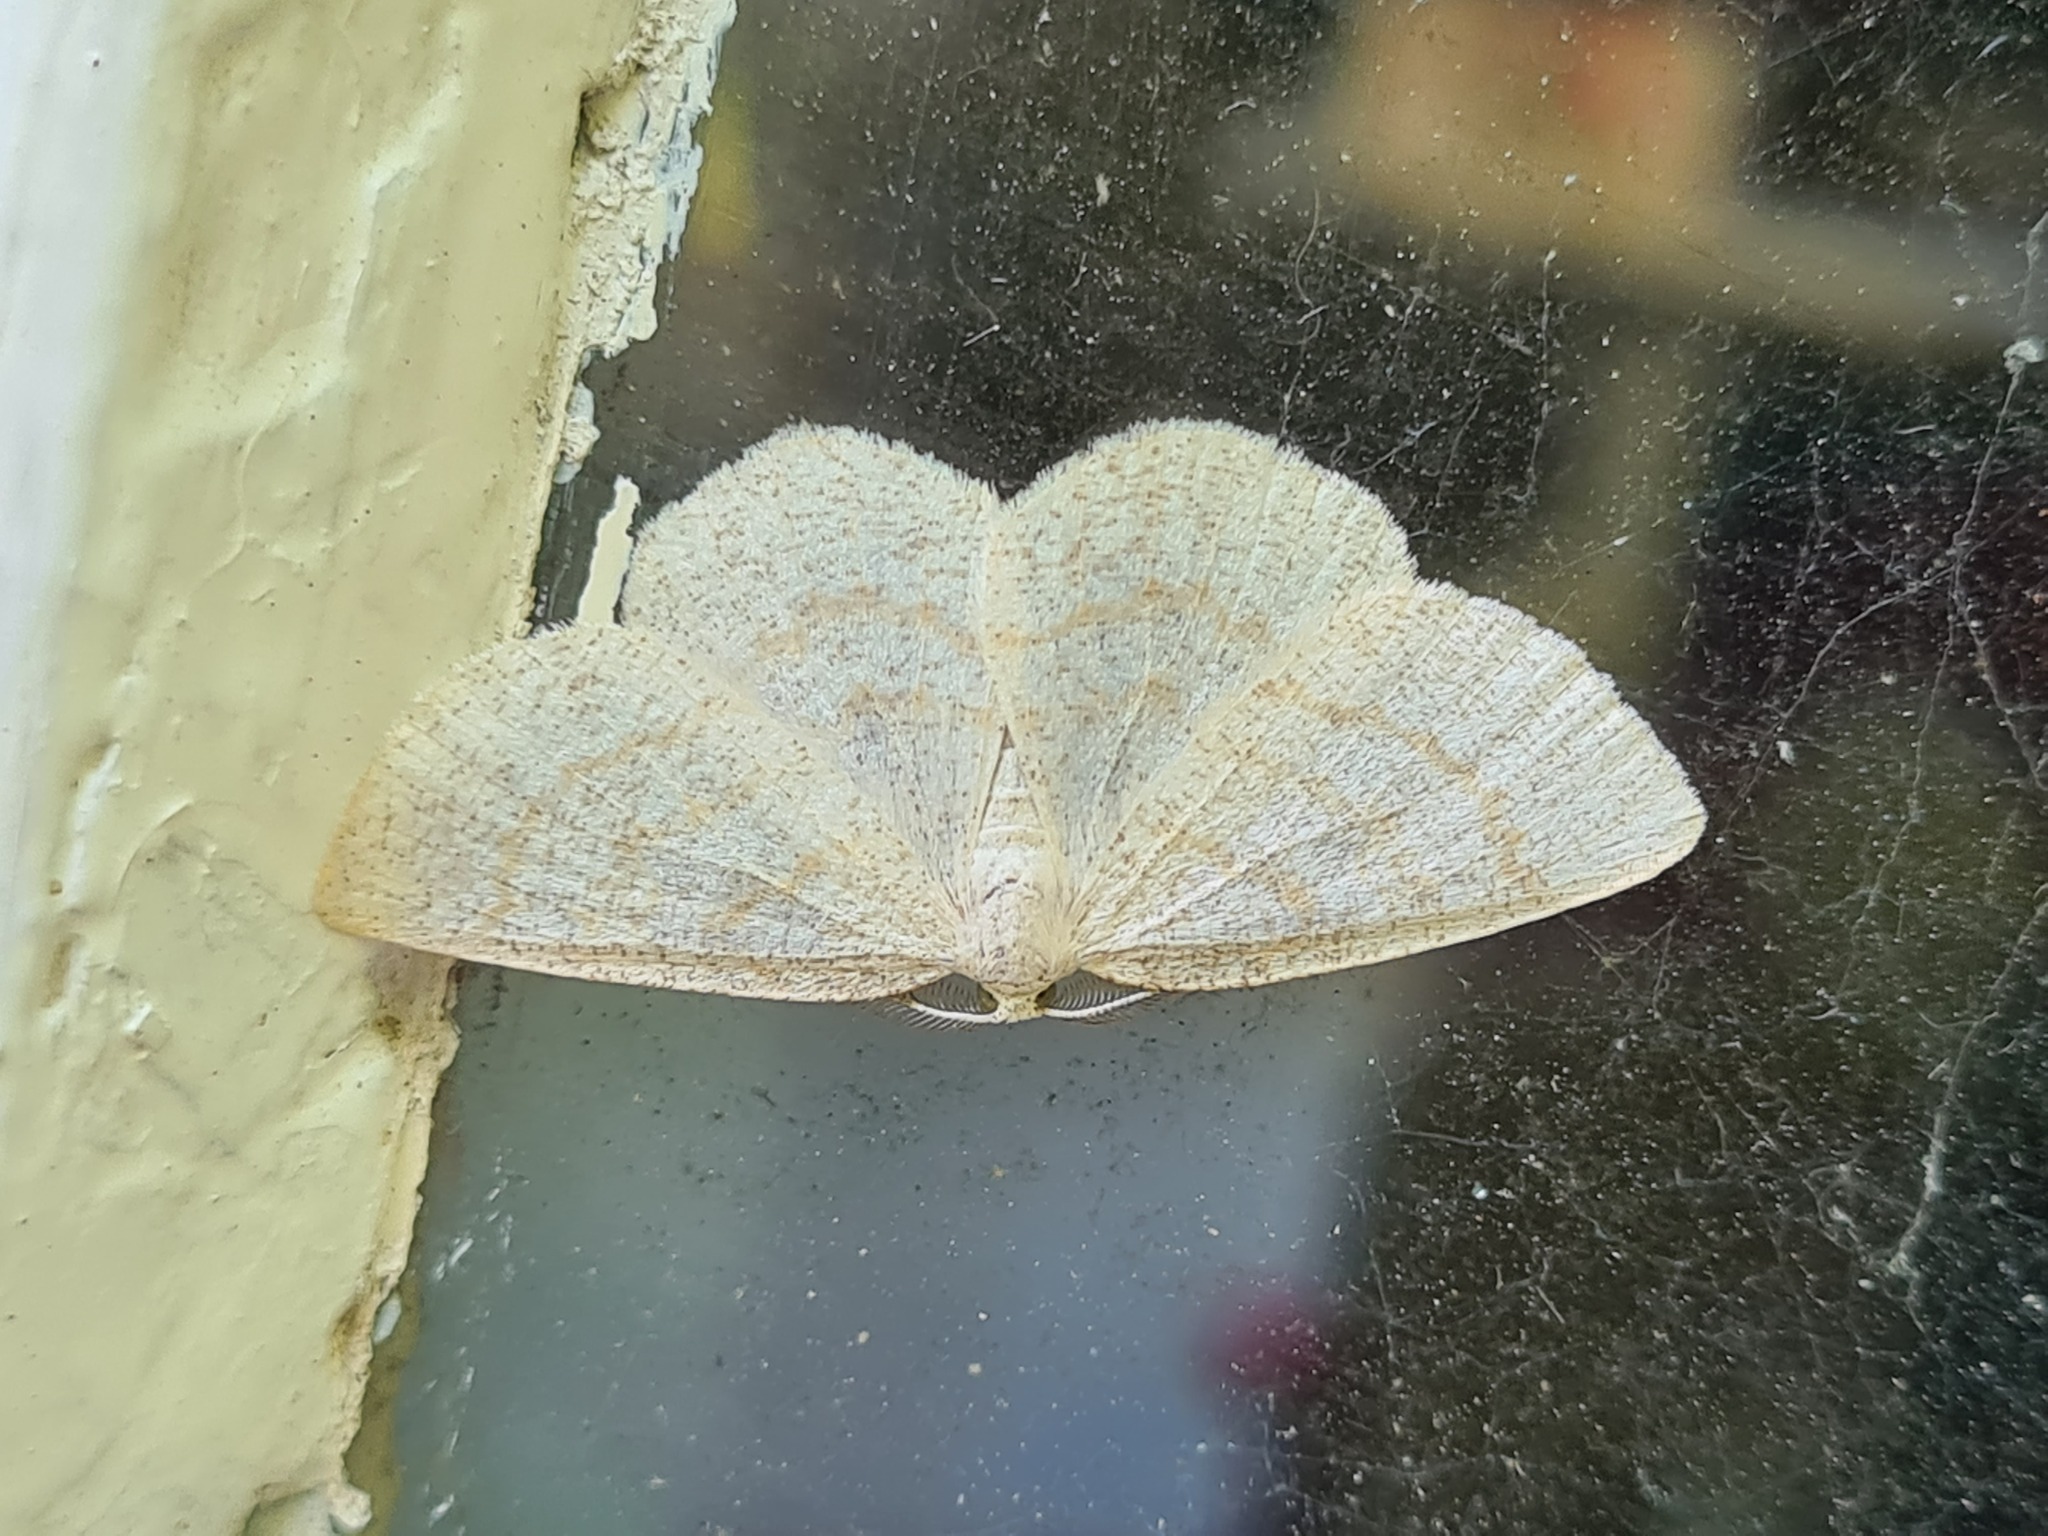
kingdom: Animalia
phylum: Arthropoda
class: Insecta
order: Lepidoptera
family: Geometridae
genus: Cabera
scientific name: Cabera exanthemata
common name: Common wave
